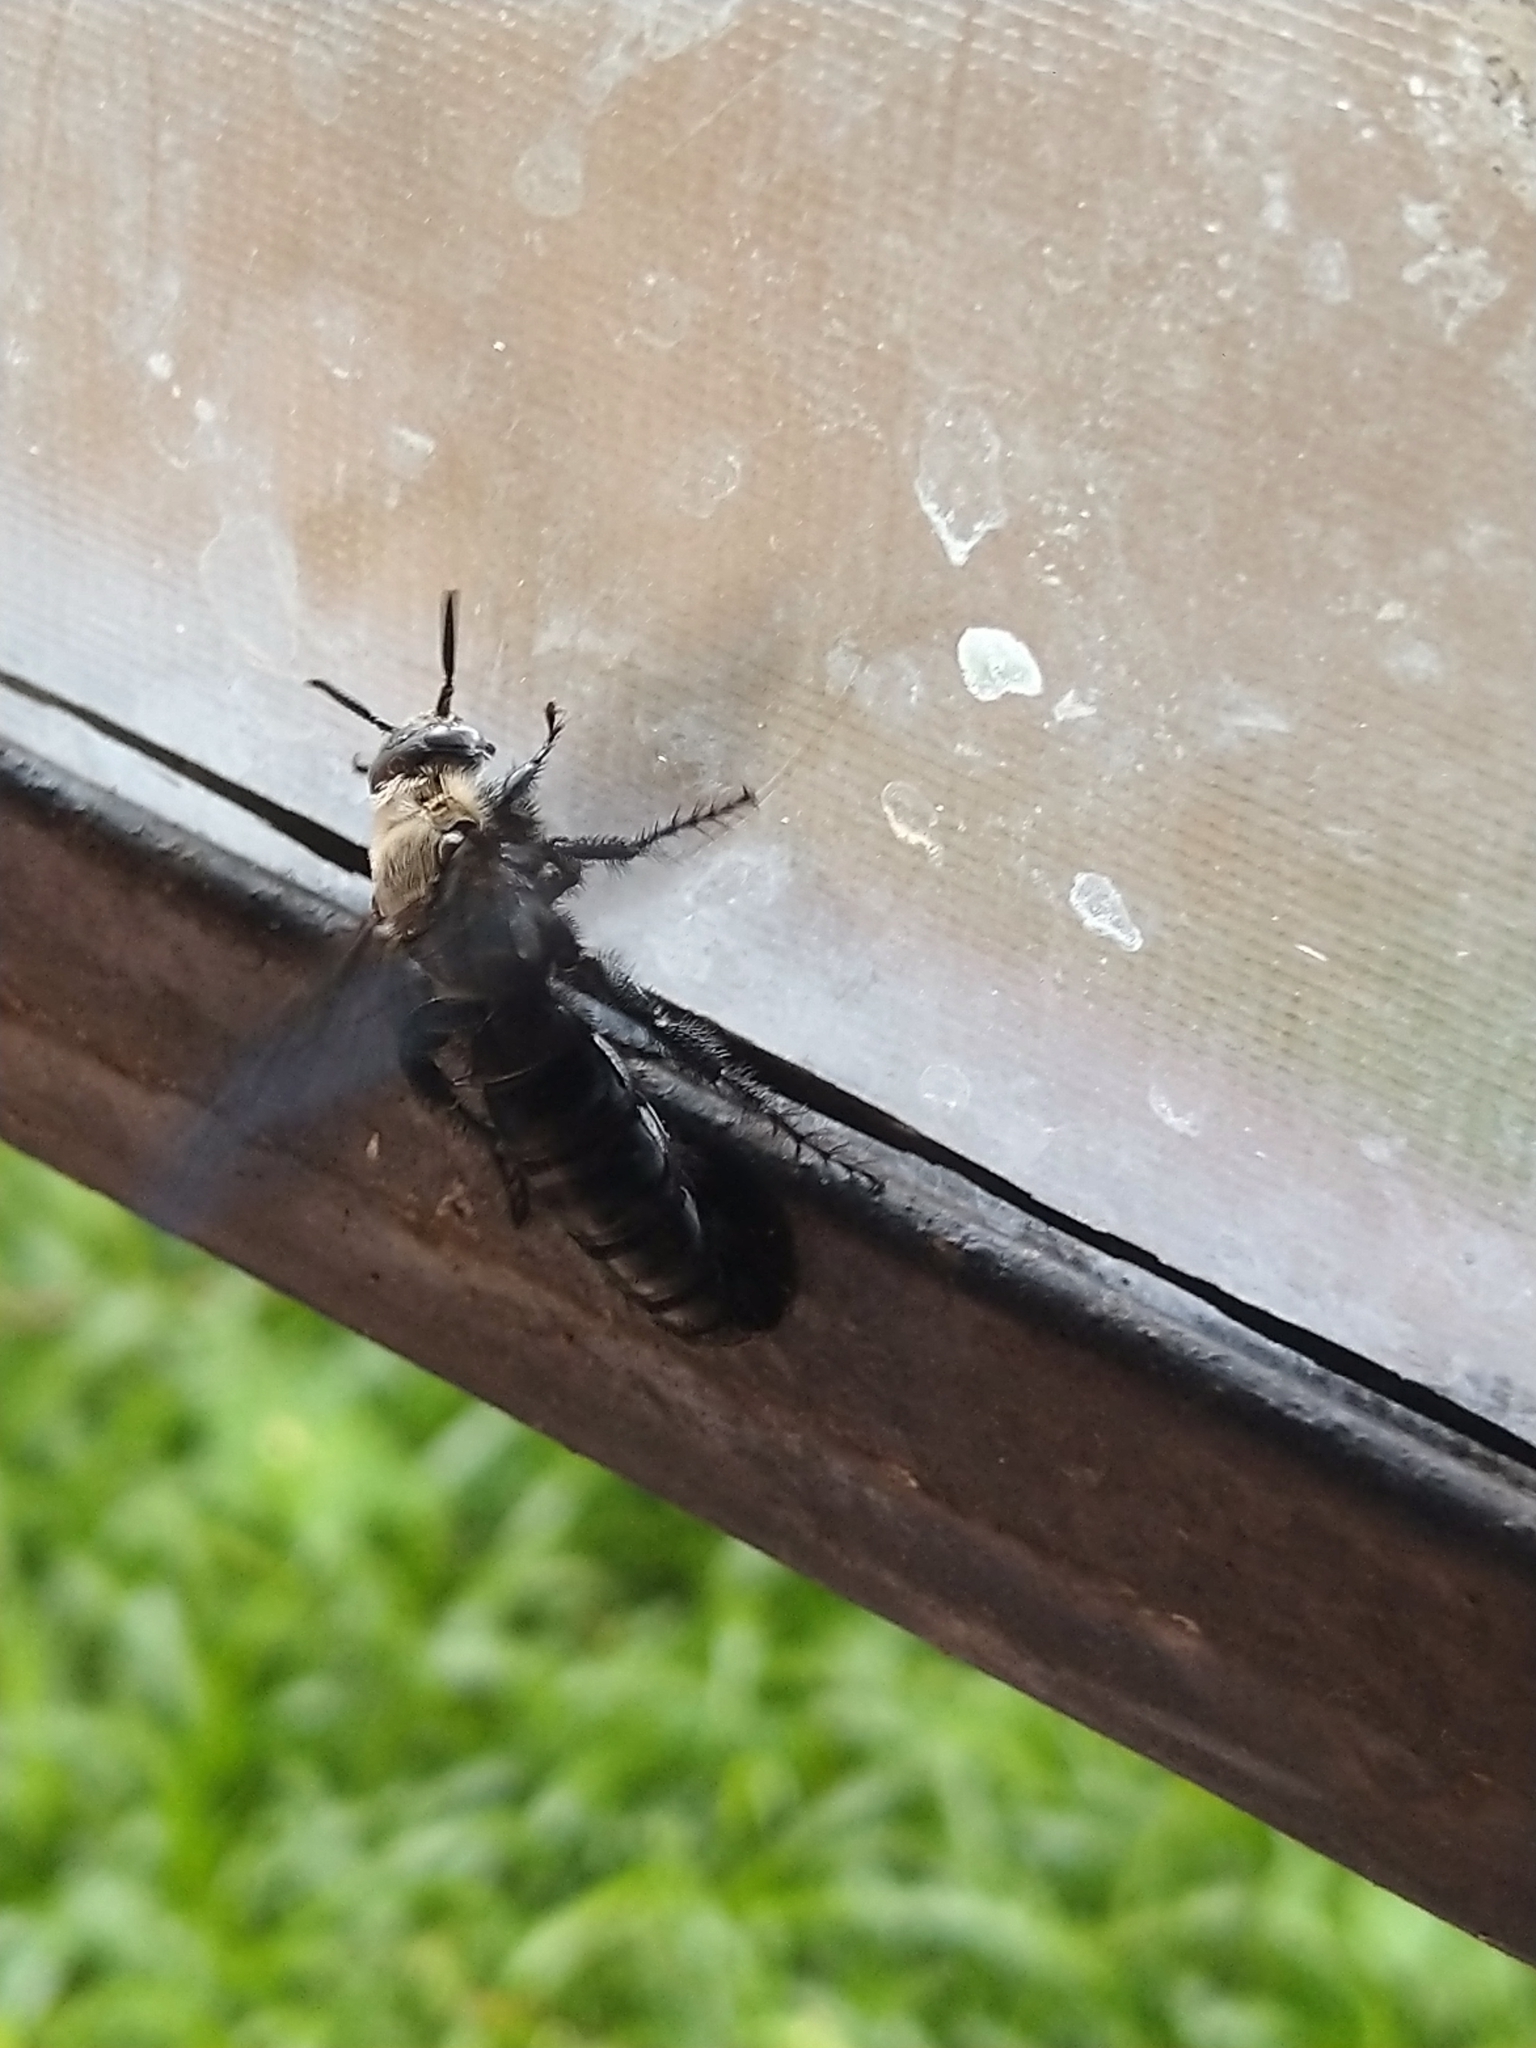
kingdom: Animalia
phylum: Arthropoda
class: Insecta
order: Hymenoptera
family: Scoliidae
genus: Campsomeriella
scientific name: Campsomeriella collaris
